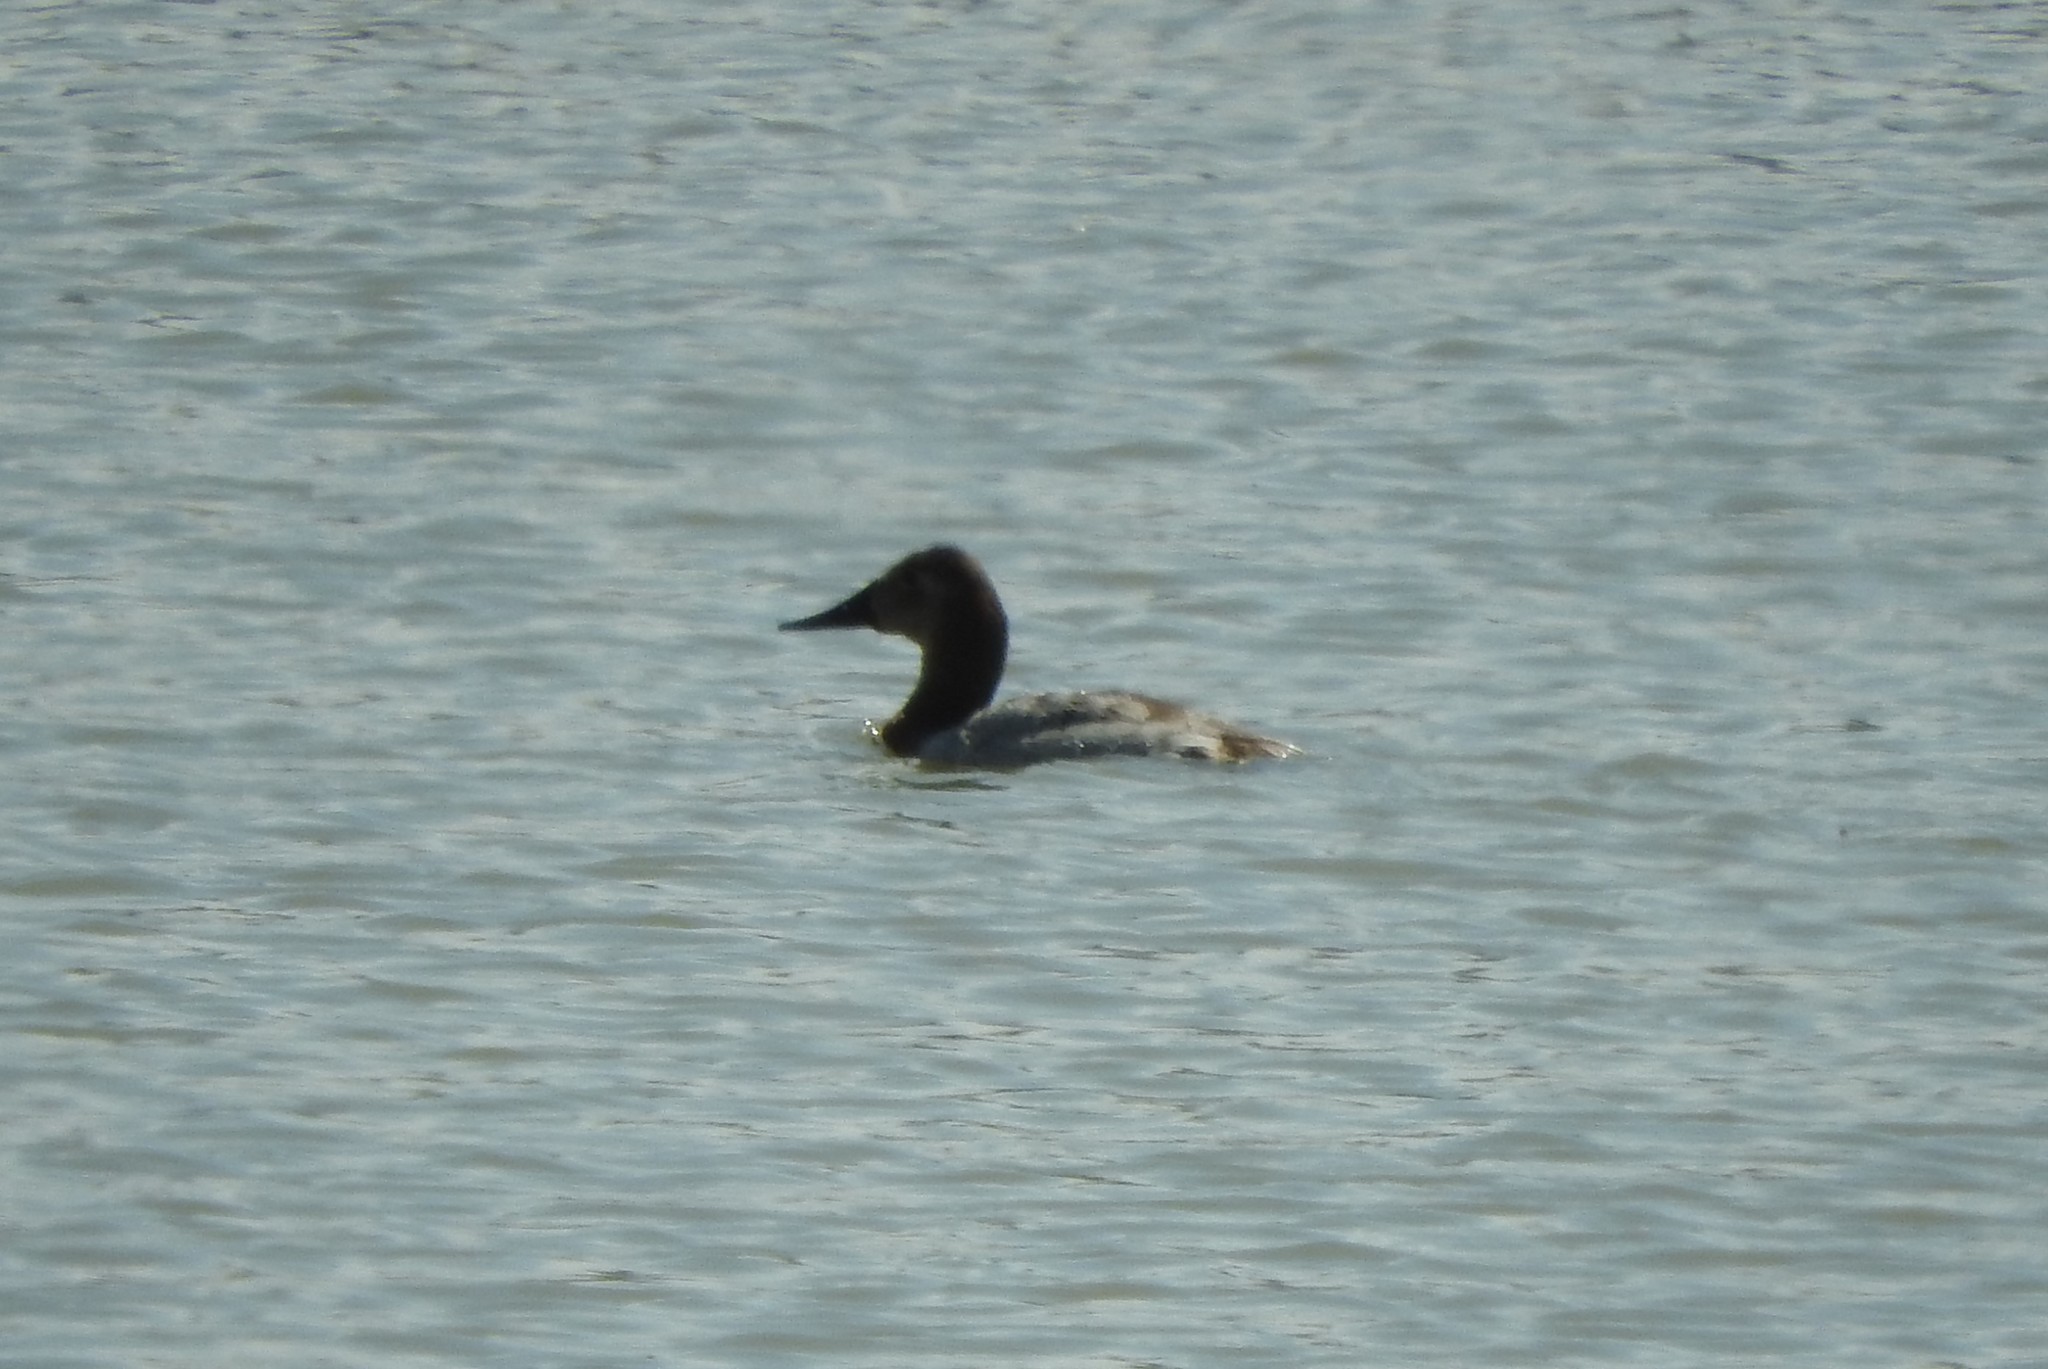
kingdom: Animalia
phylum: Chordata
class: Aves
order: Anseriformes
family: Anatidae
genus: Aythya
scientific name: Aythya valisineria
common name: Canvasback
